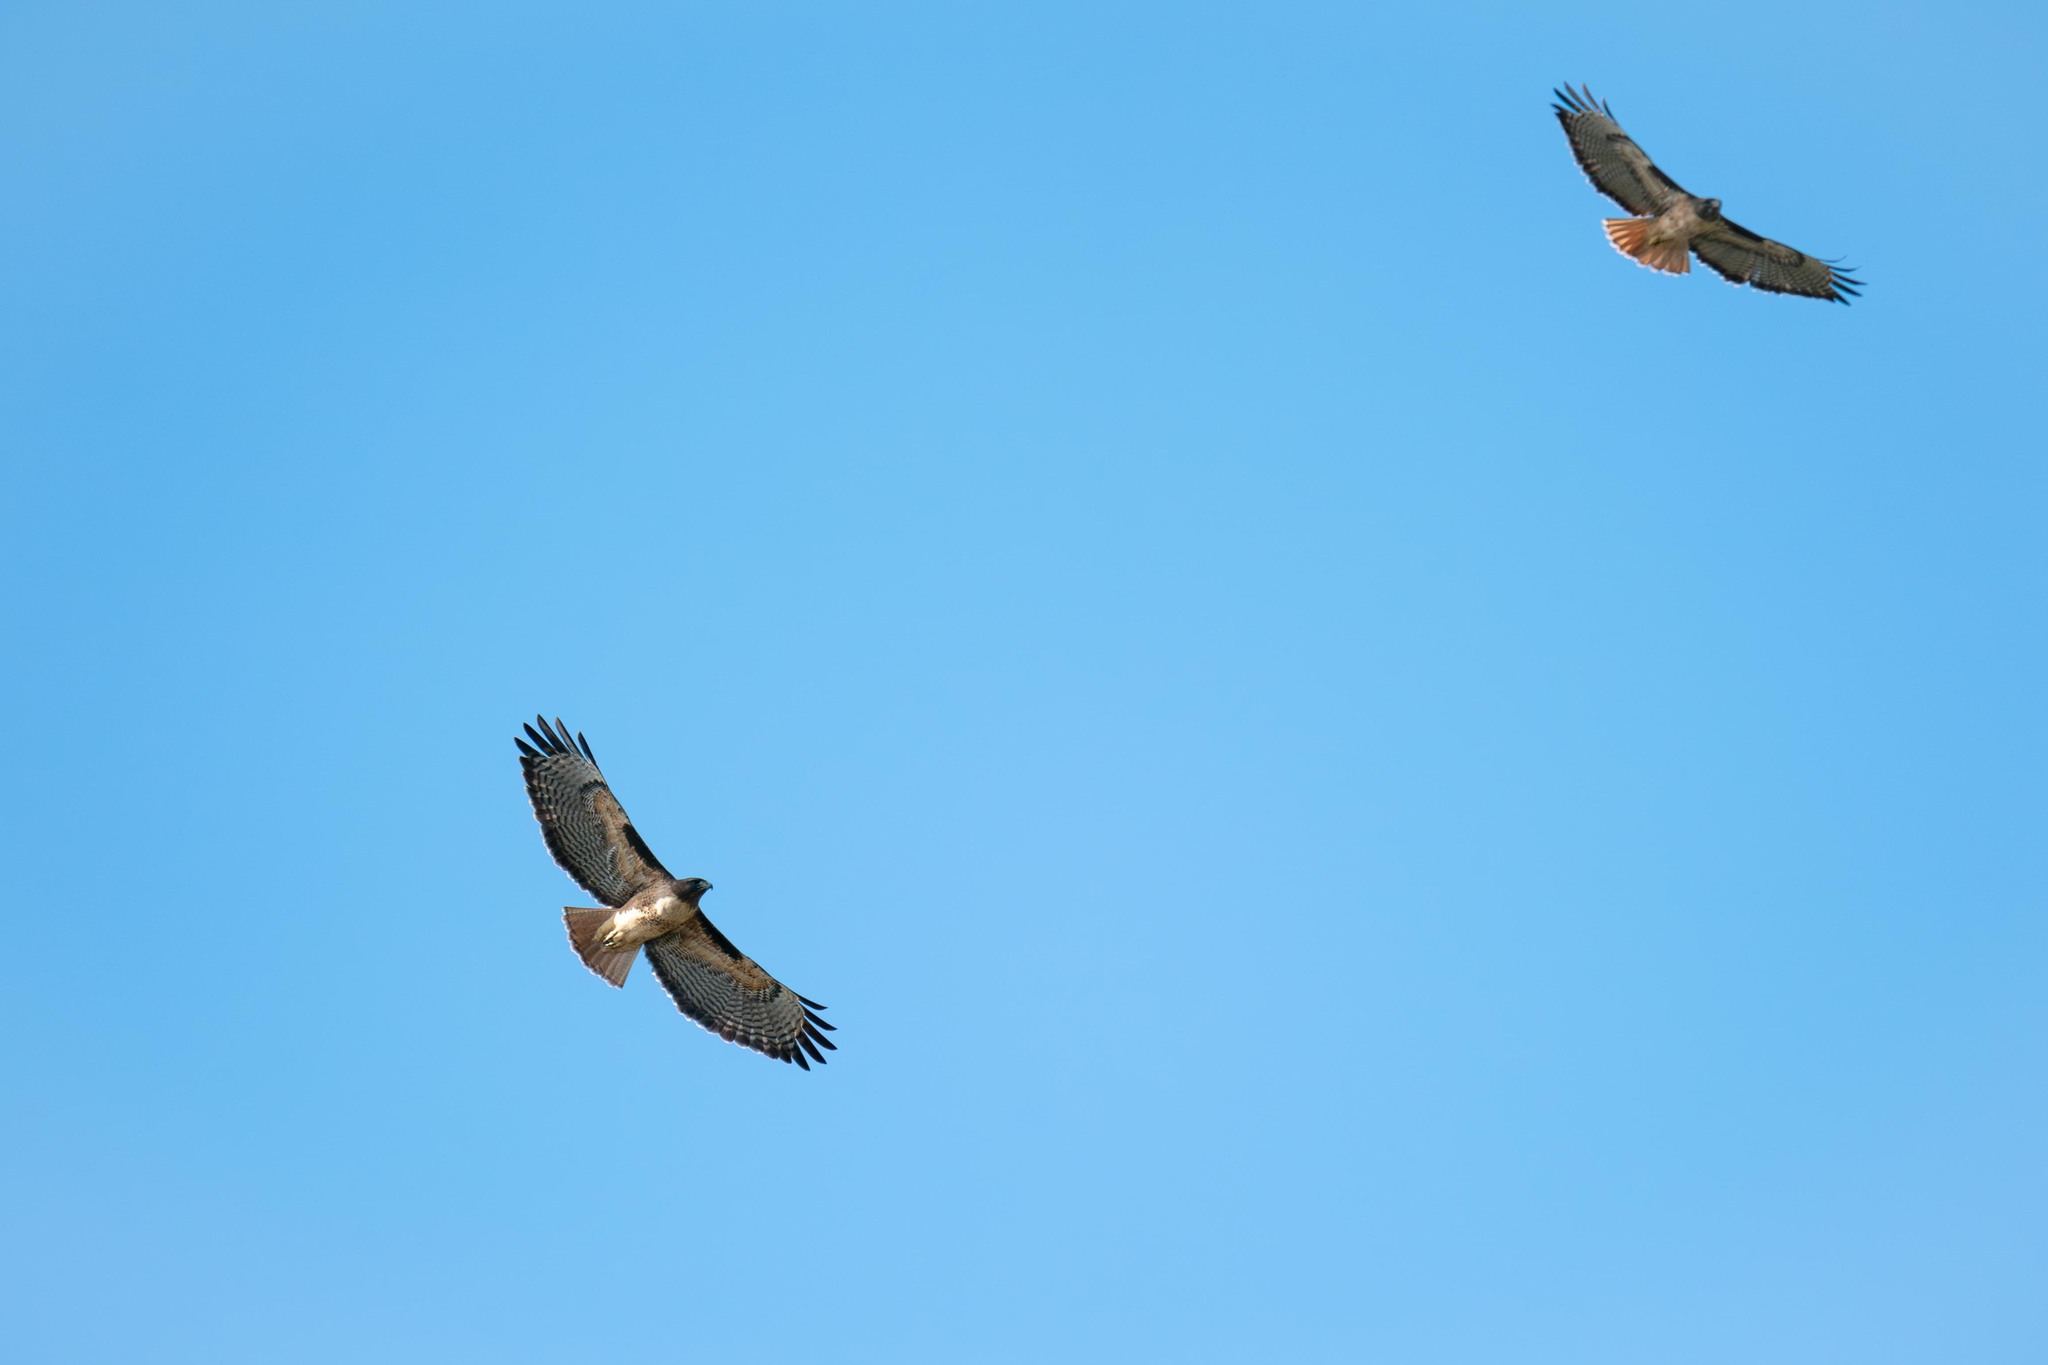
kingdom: Animalia
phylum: Chordata
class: Aves
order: Accipitriformes
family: Accipitridae
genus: Buteo
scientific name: Buteo jamaicensis
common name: Red-tailed hawk
